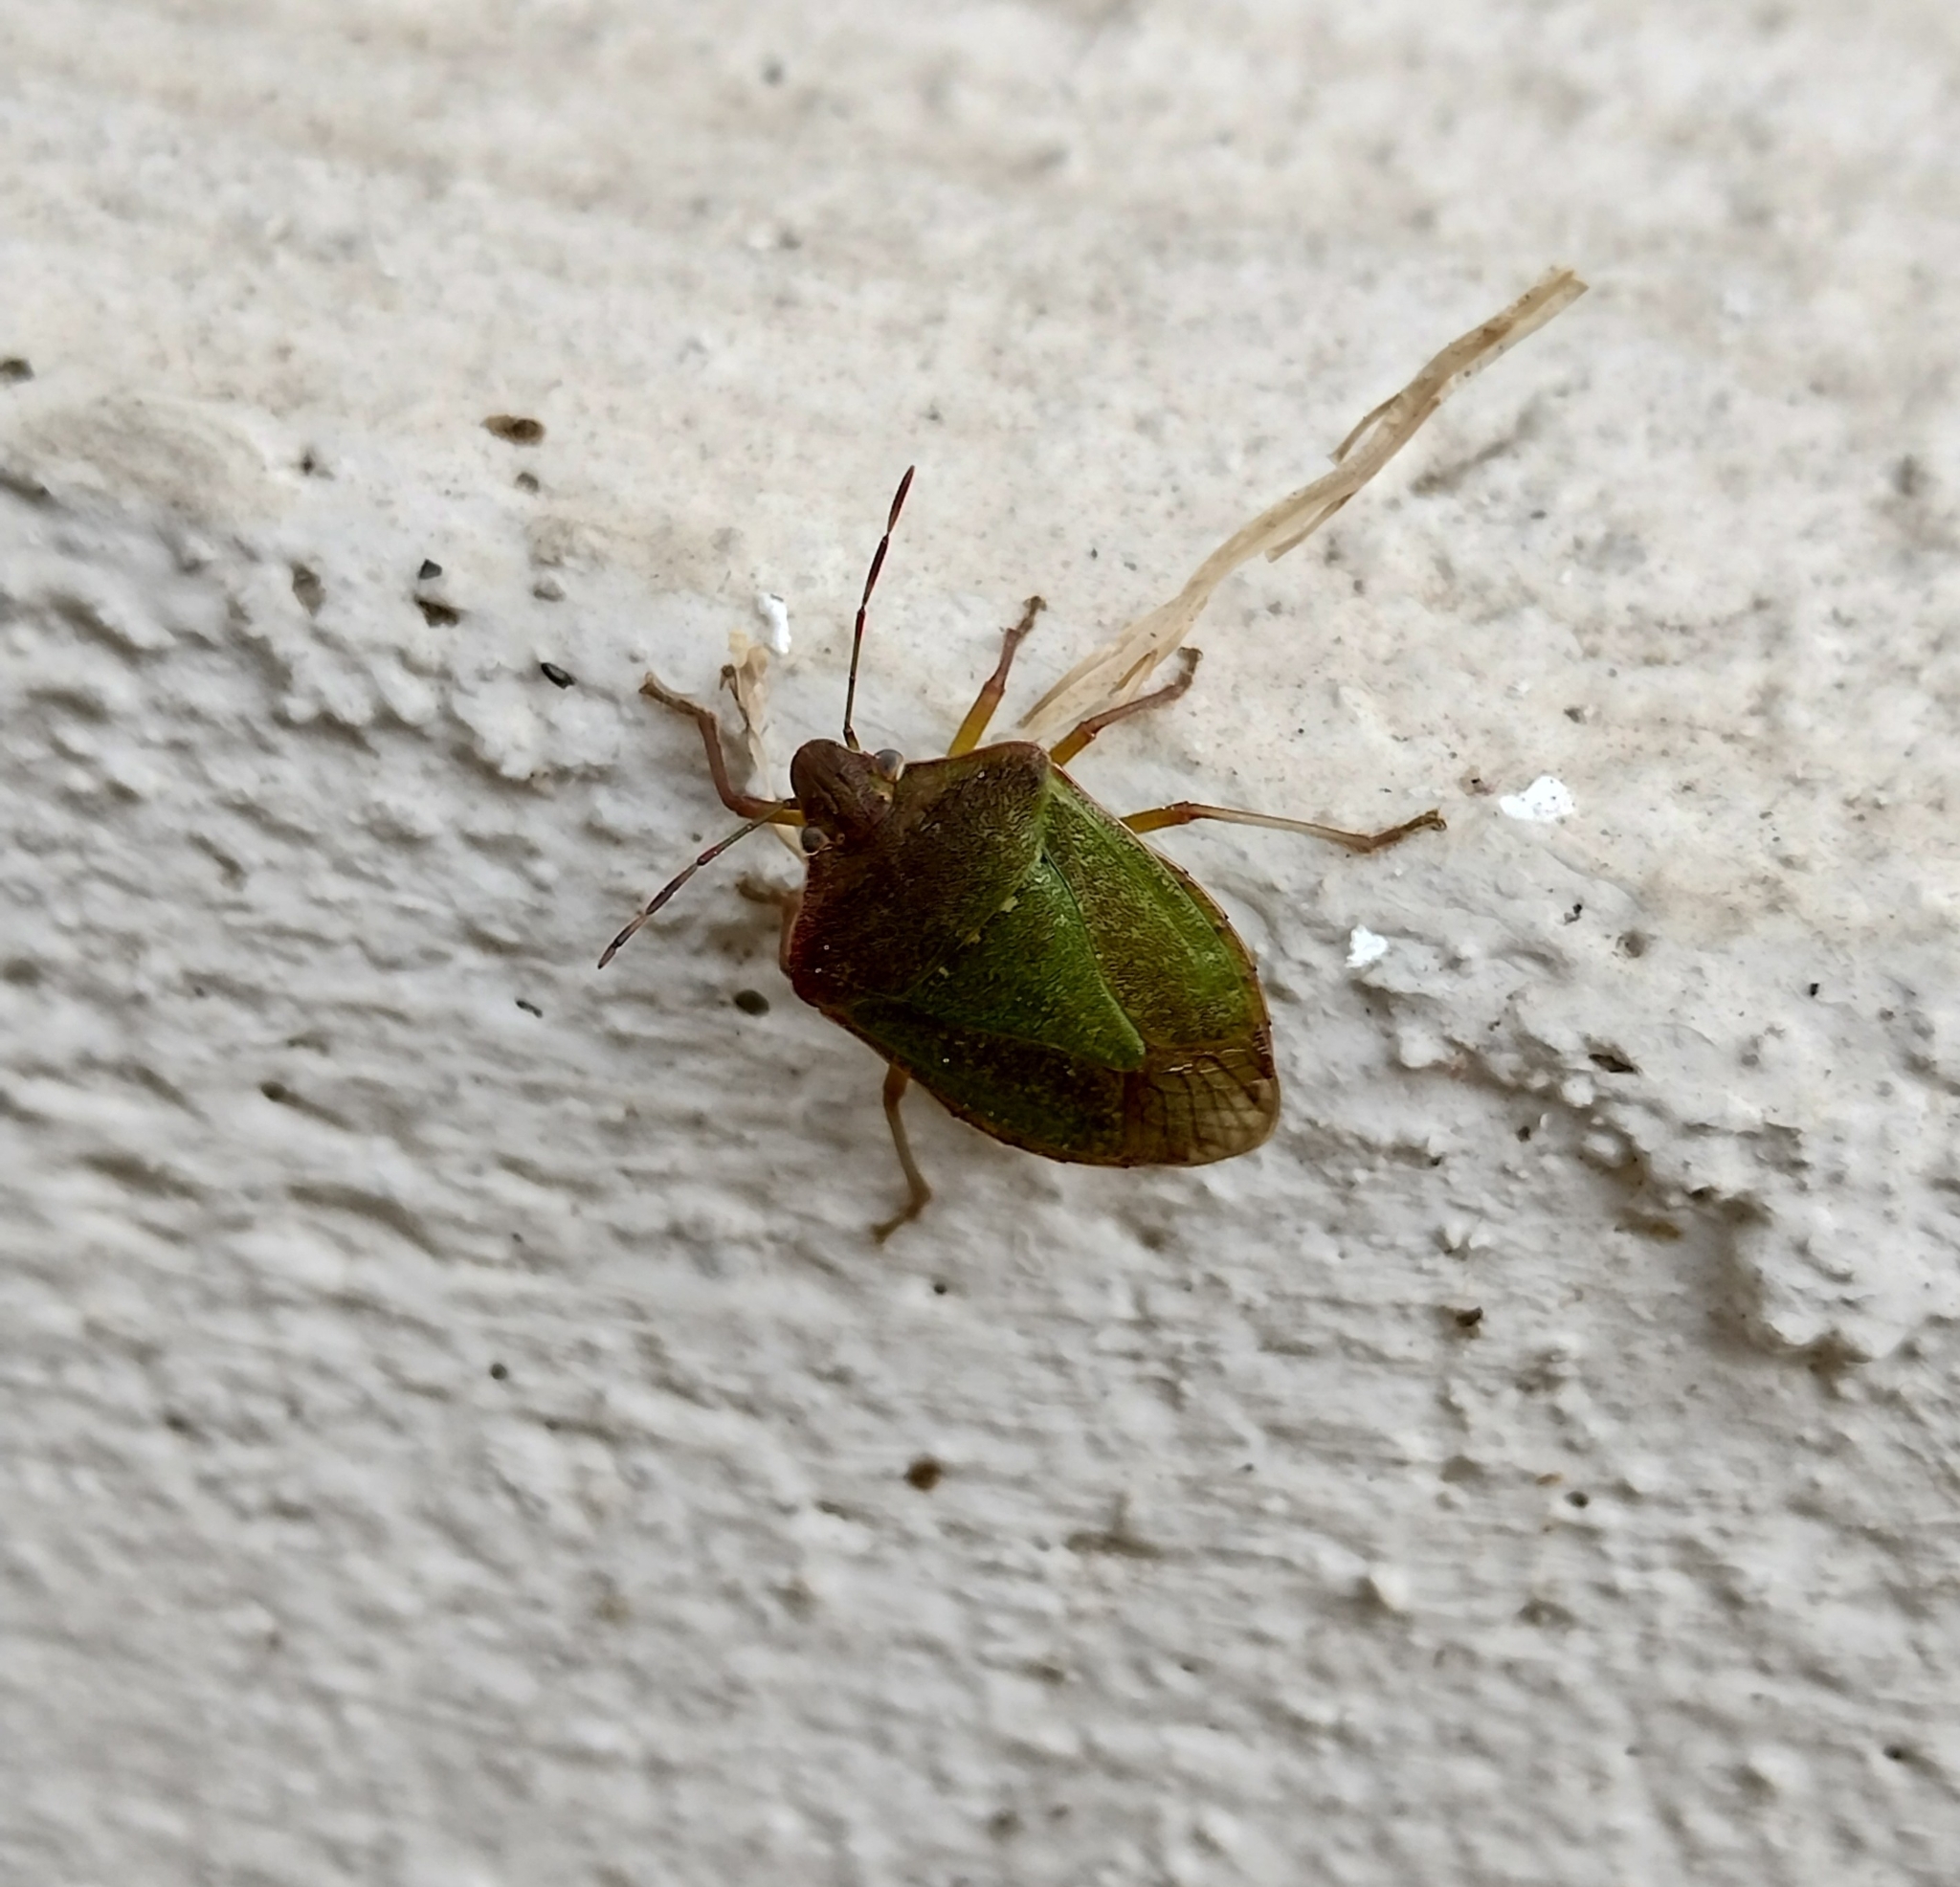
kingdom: Animalia
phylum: Arthropoda
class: Insecta
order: Hemiptera
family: Pentatomidae
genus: Nezara
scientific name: Nezara viridula
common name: Southern green stink bug
